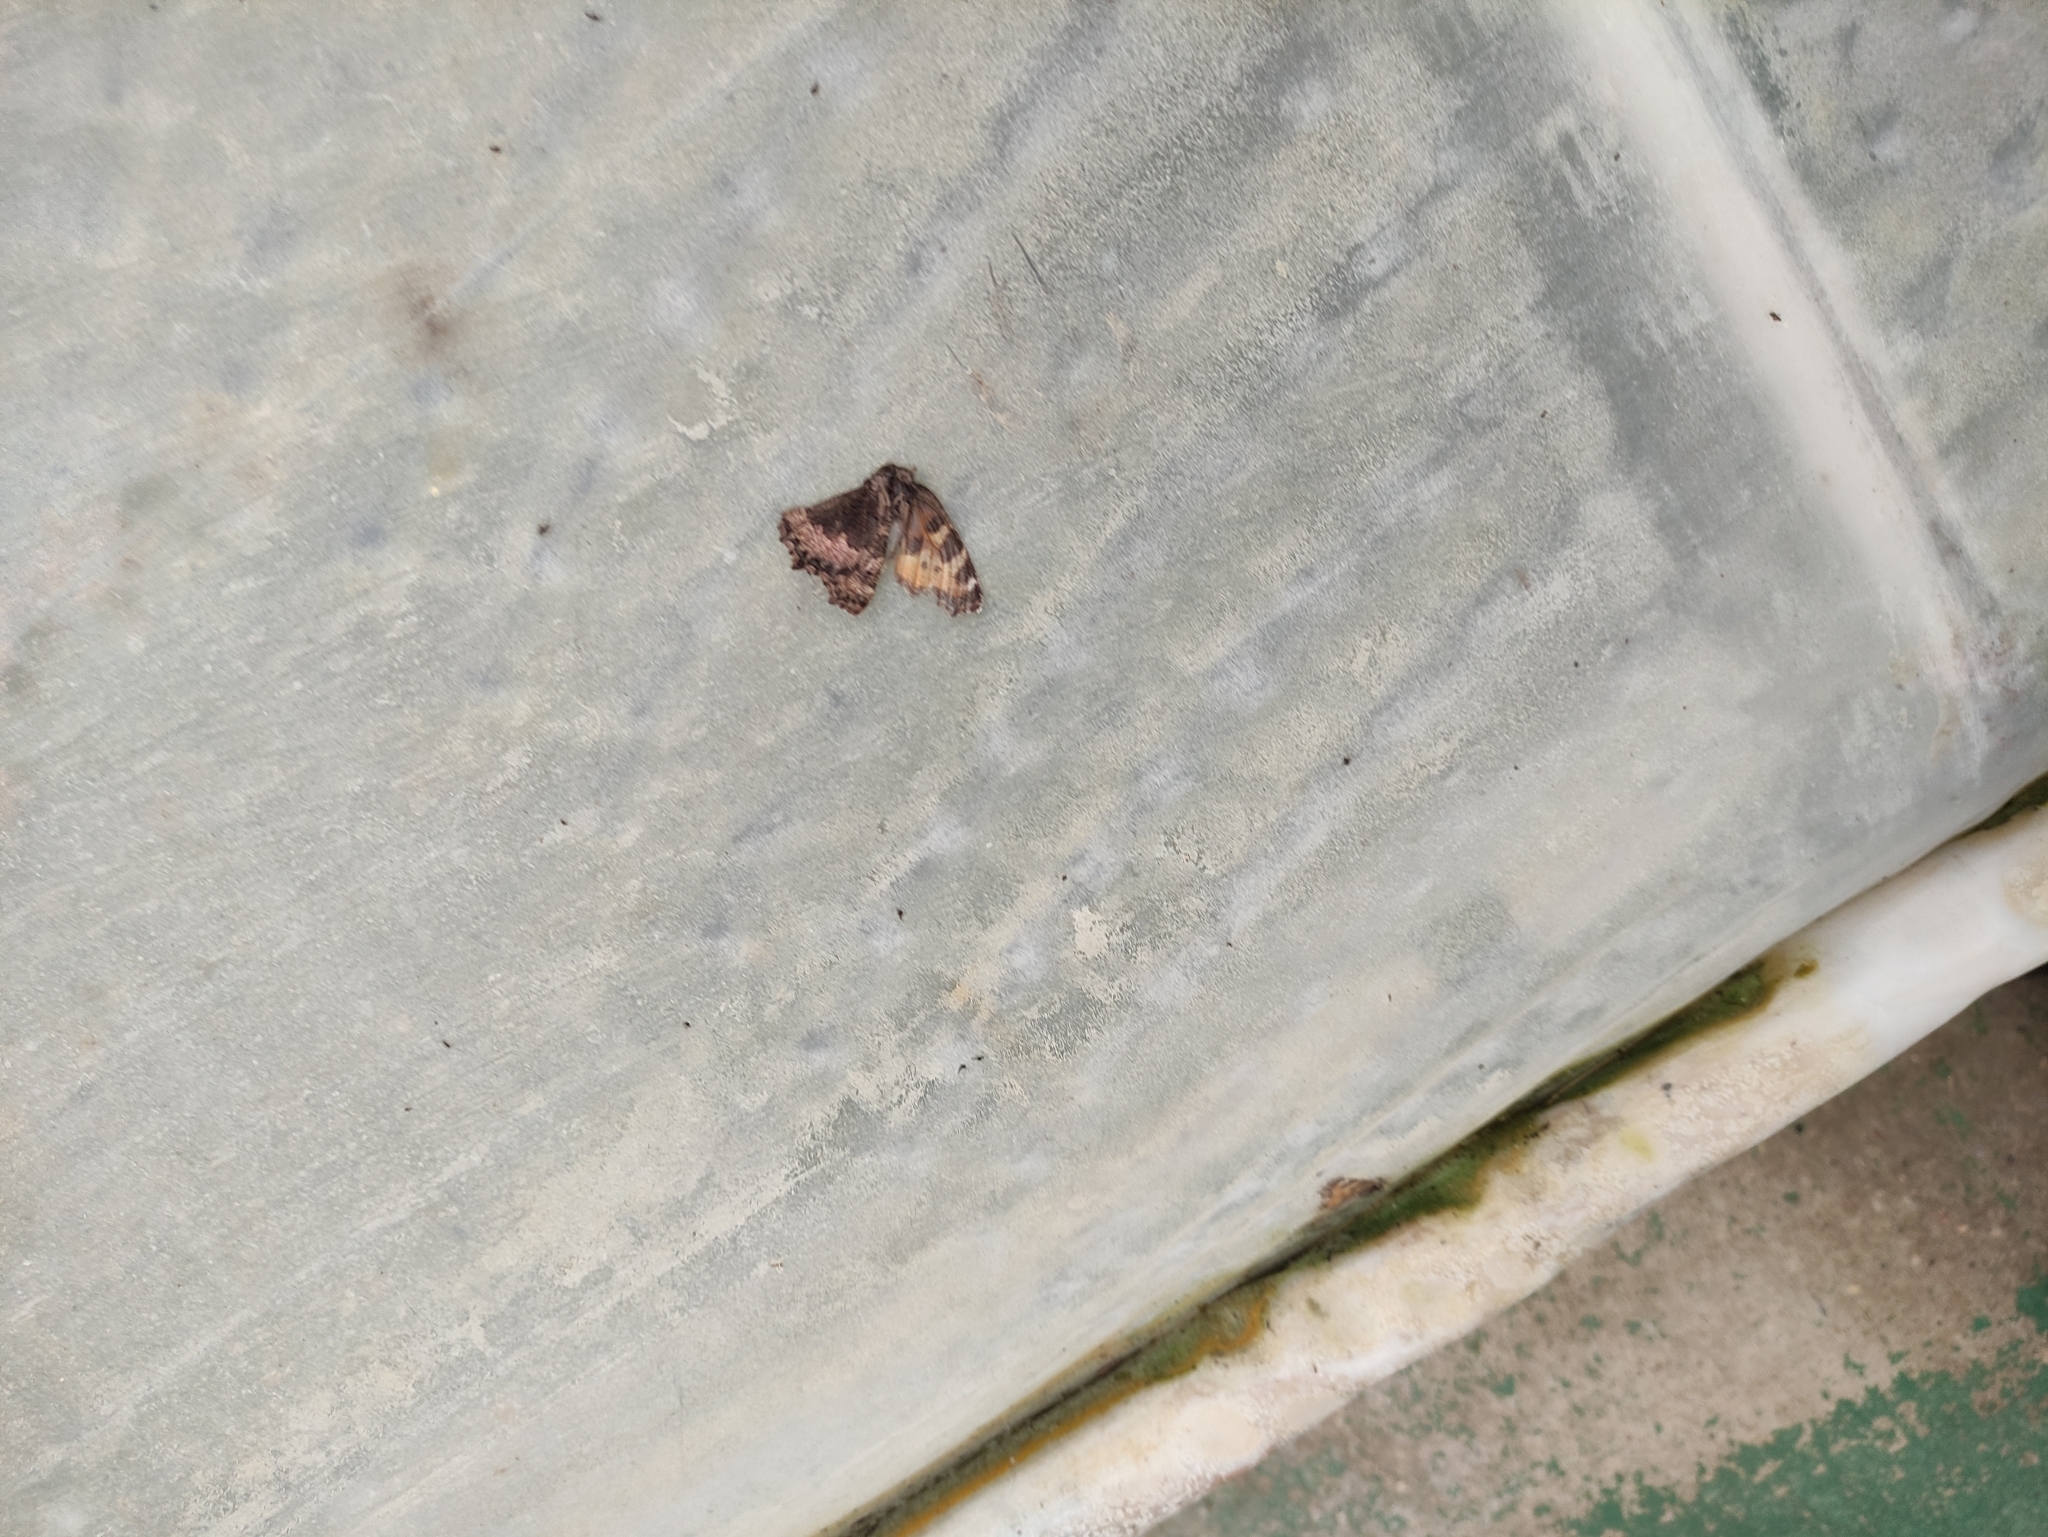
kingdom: Animalia
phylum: Arthropoda
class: Insecta
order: Lepidoptera
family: Nymphalidae
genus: Aglais
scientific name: Aglais urticae
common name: Small tortoiseshell
